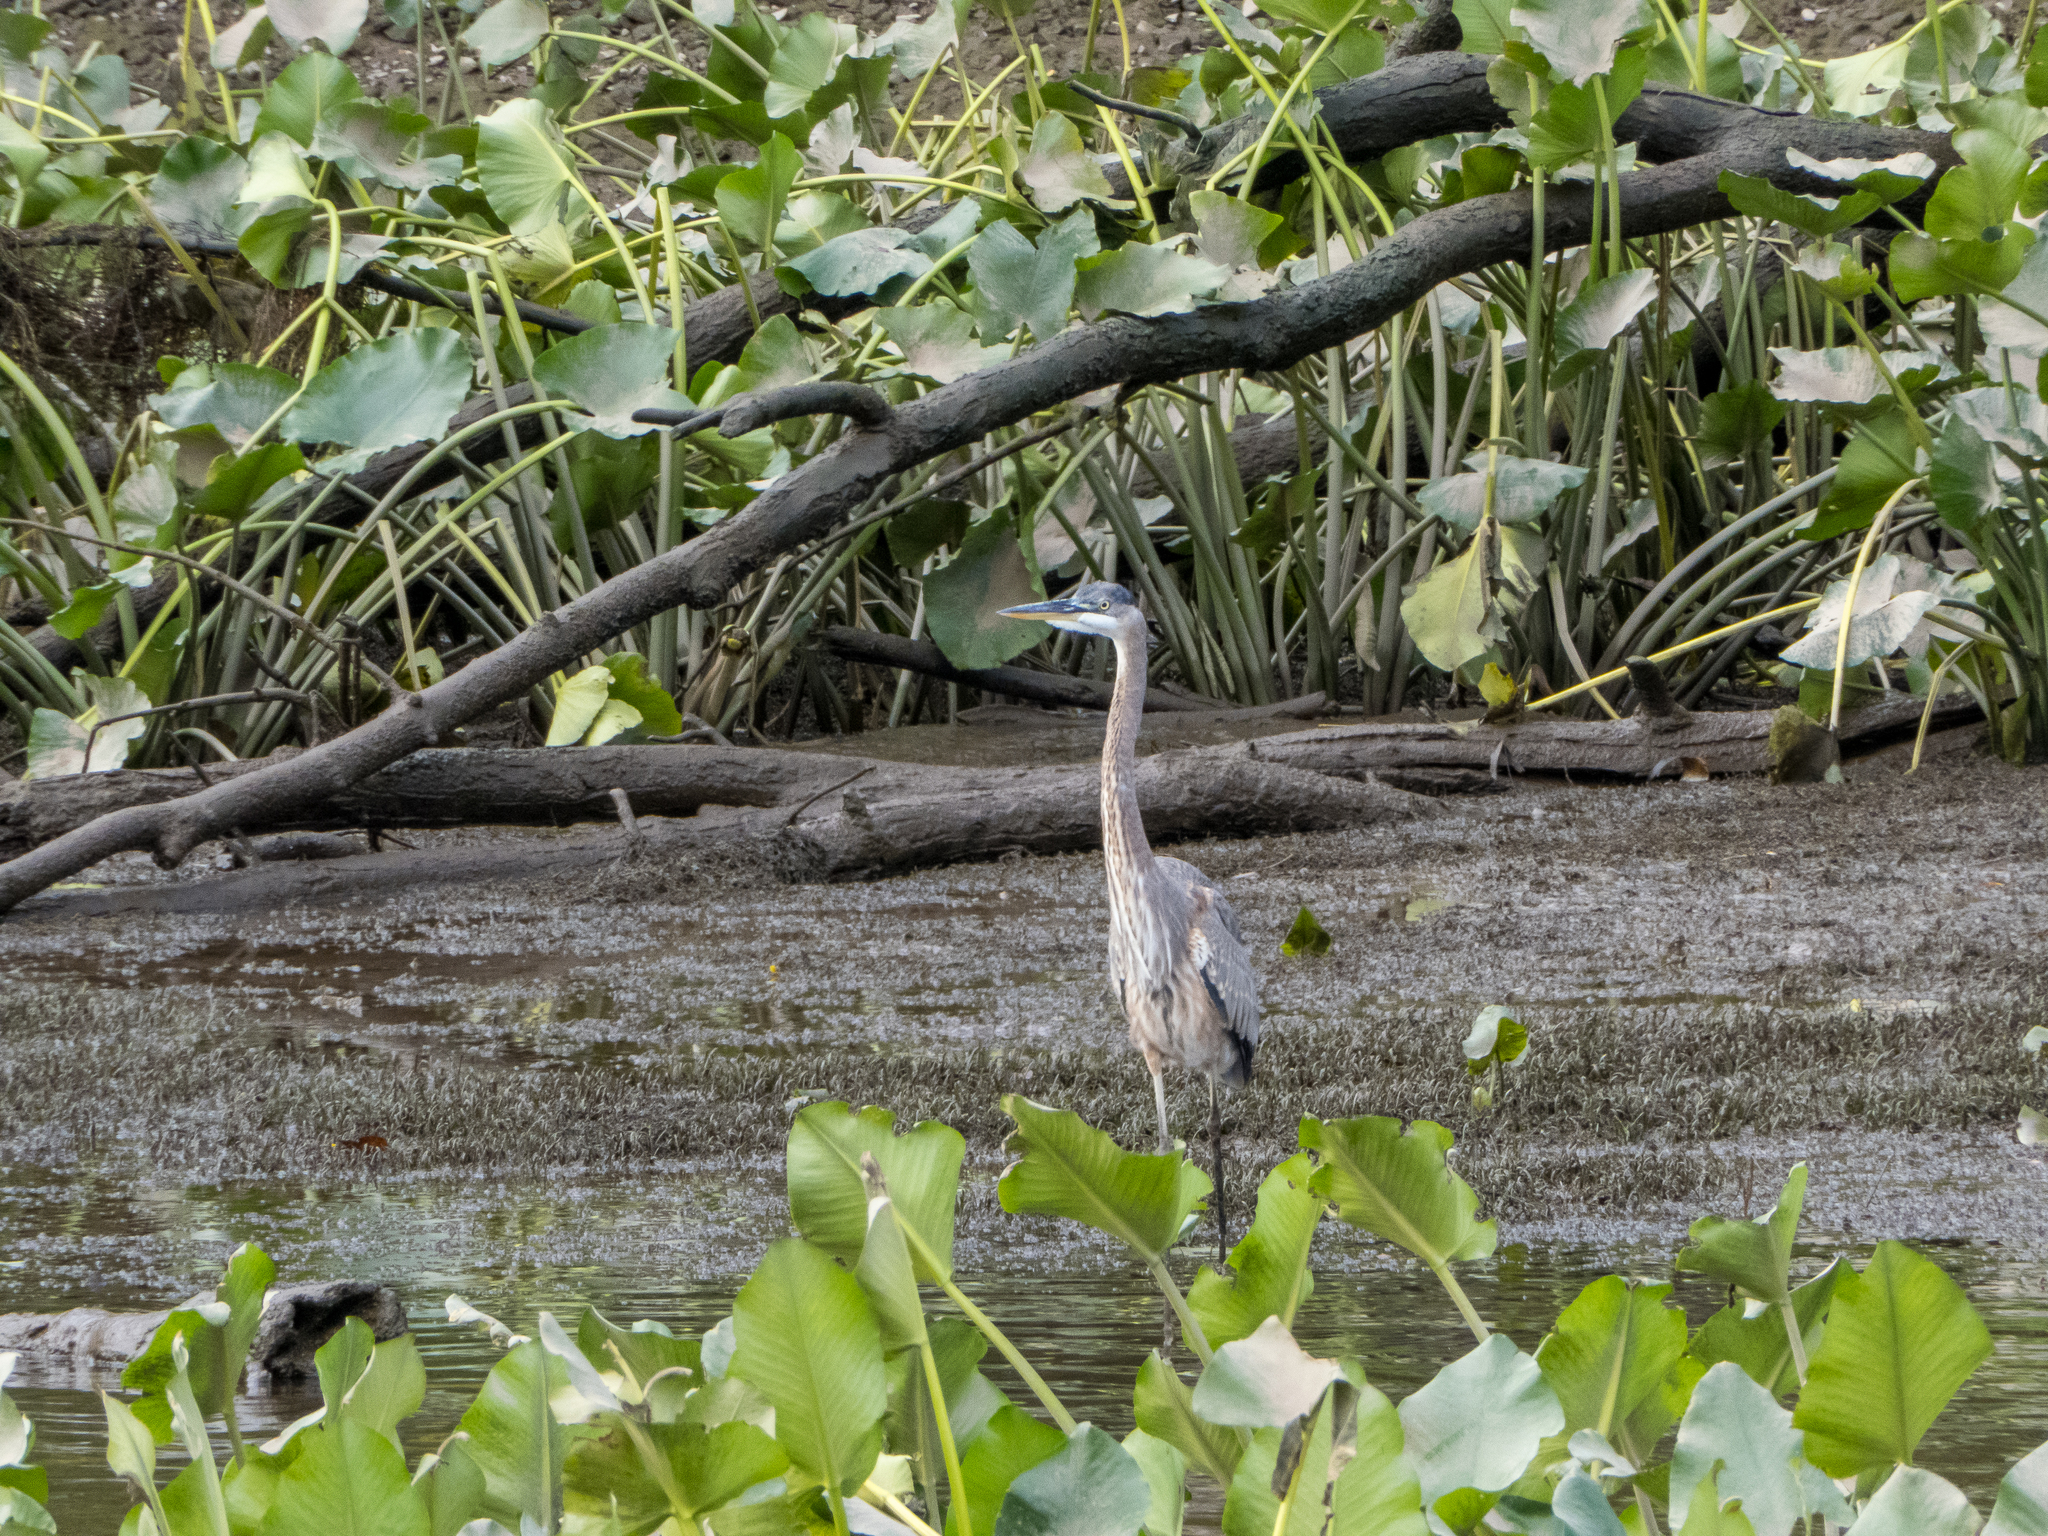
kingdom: Animalia
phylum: Chordata
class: Aves
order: Pelecaniformes
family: Ardeidae
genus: Ardea
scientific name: Ardea herodias
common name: Great blue heron
